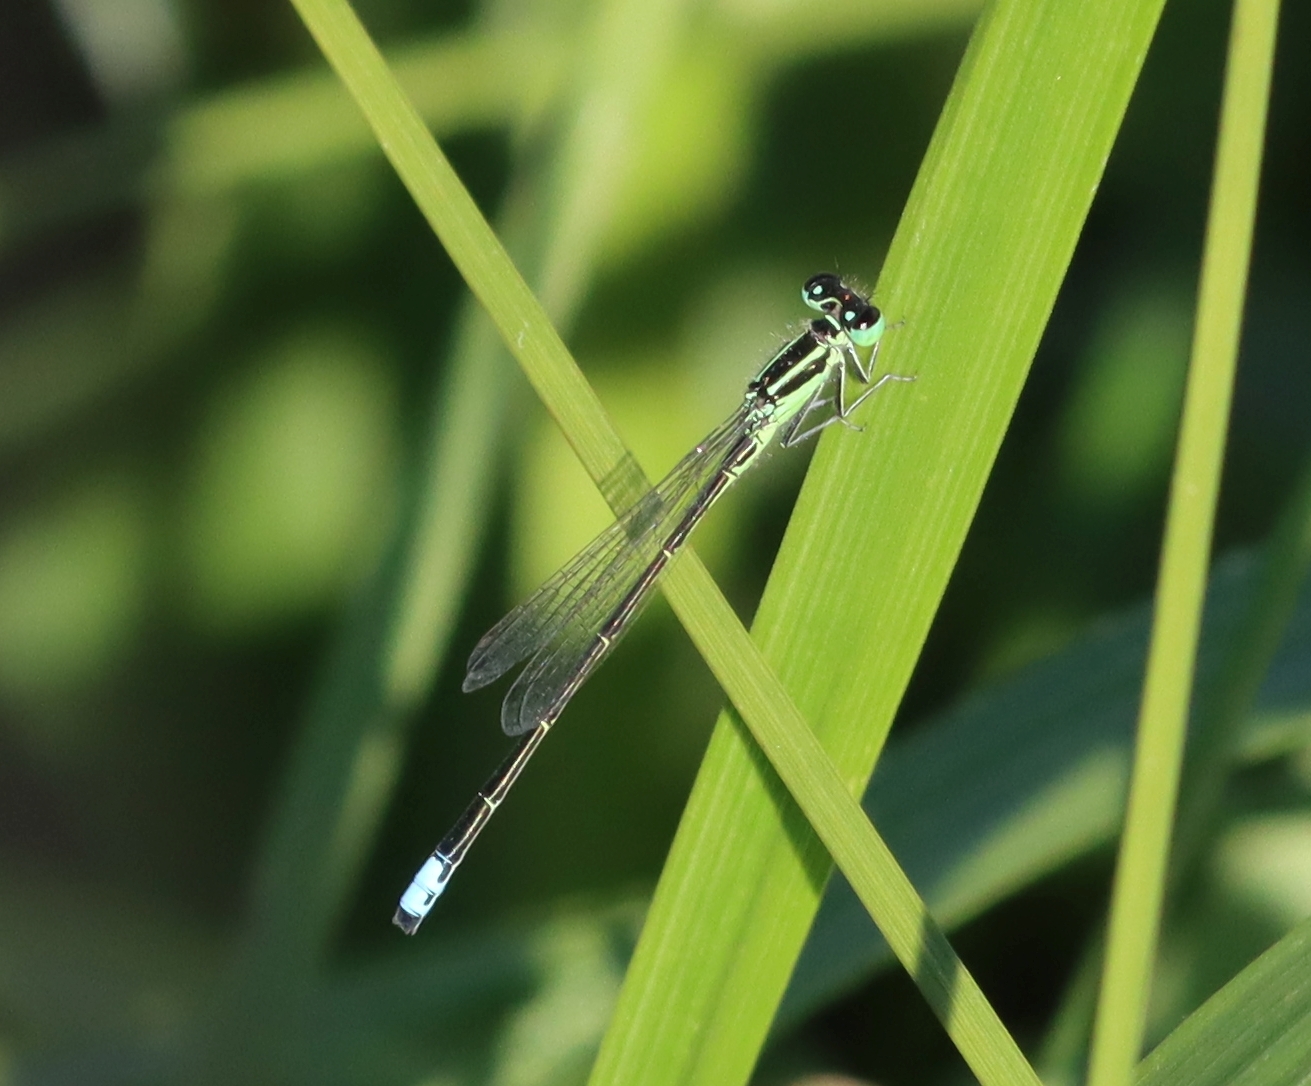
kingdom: Animalia
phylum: Arthropoda
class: Insecta
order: Odonata
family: Coenagrionidae
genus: Ischnura
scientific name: Ischnura verticalis
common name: Eastern forktail
